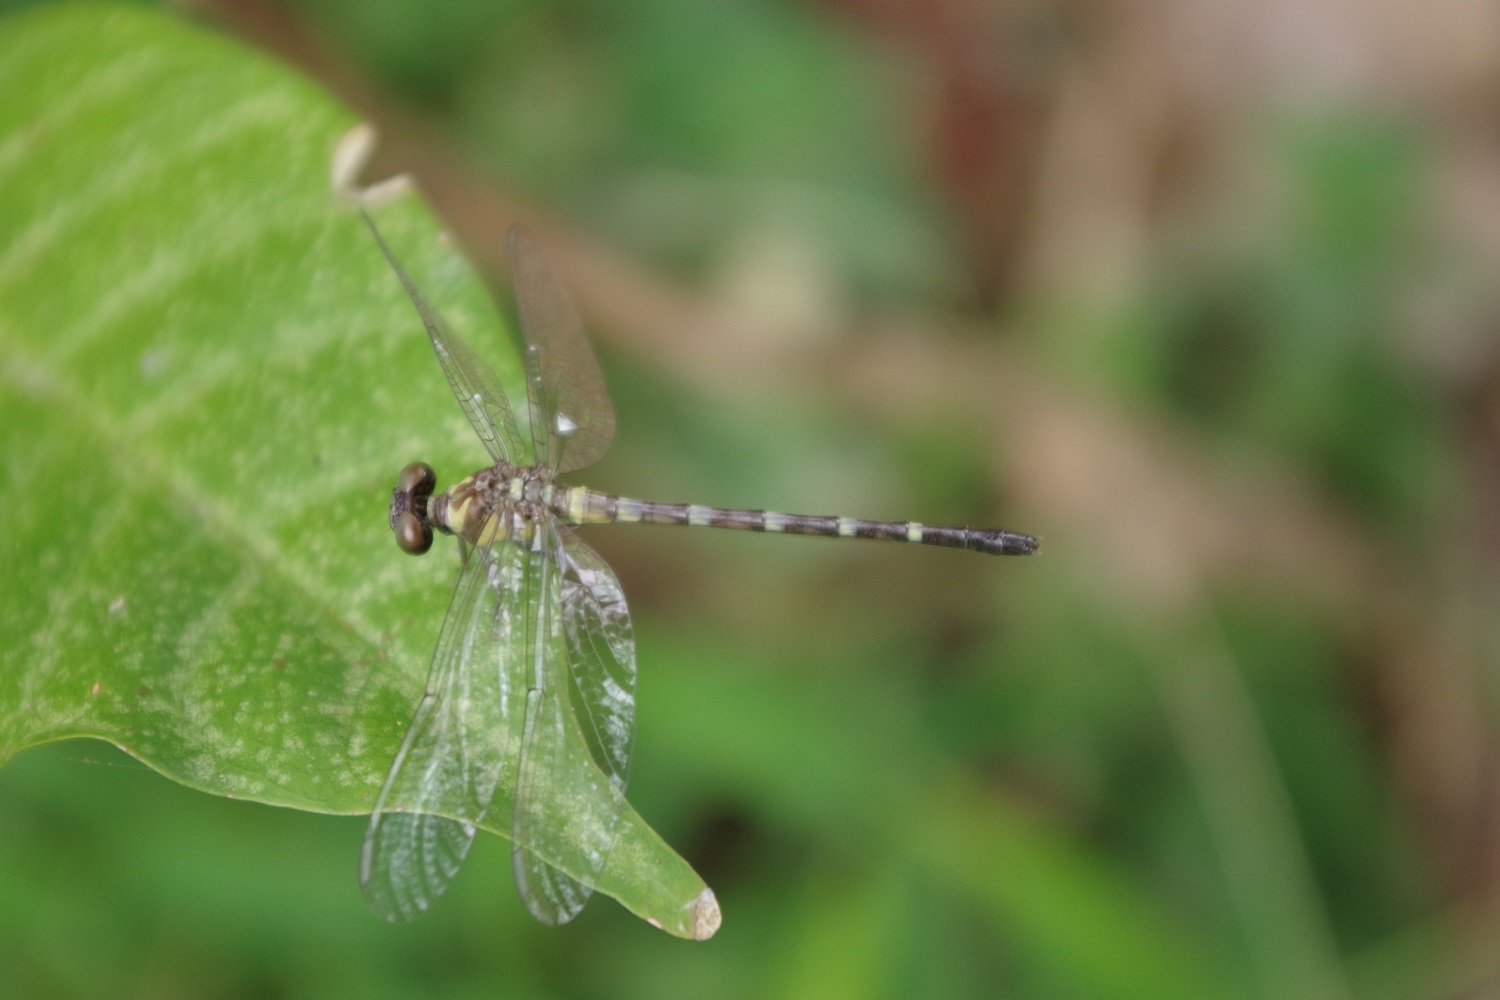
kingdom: Animalia
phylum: Arthropoda
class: Insecta
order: Odonata
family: Gomphidae
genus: Microgomphus
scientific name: Microgomphus chelifer
